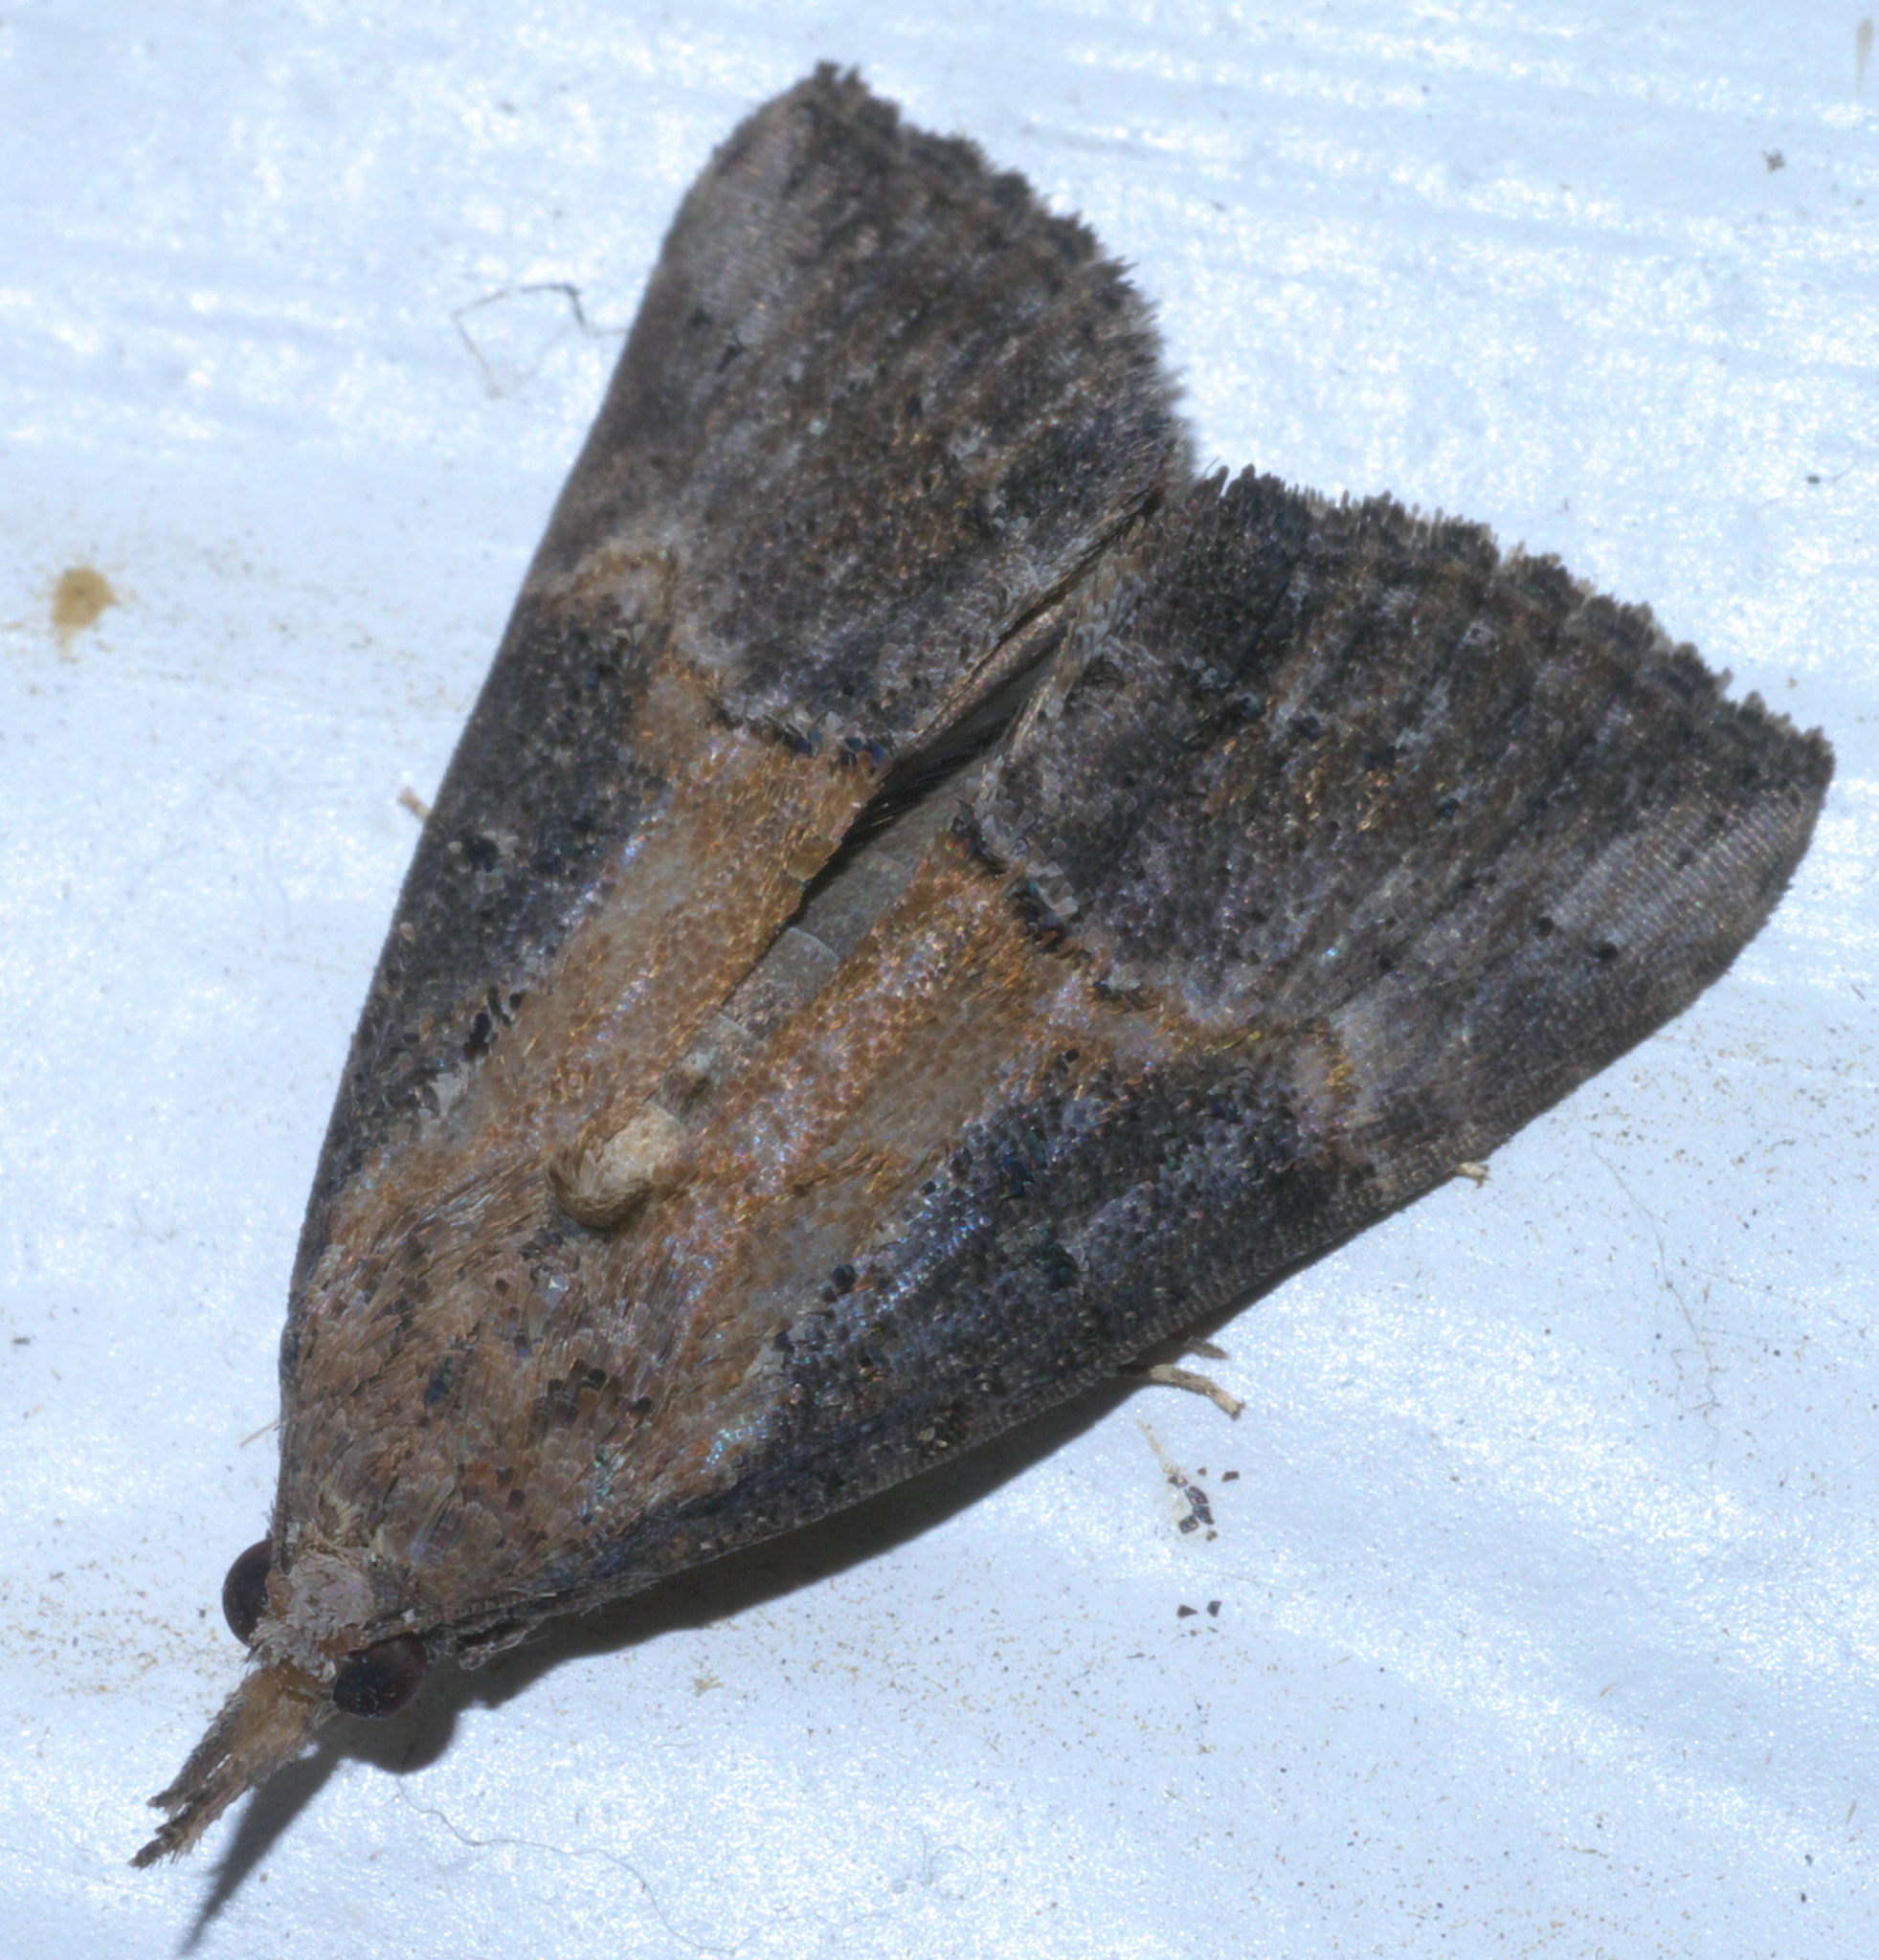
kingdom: Animalia
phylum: Arthropoda
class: Insecta
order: Lepidoptera
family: Erebidae
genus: Hypena
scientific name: Hypena scabra
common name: Green cloverworm
